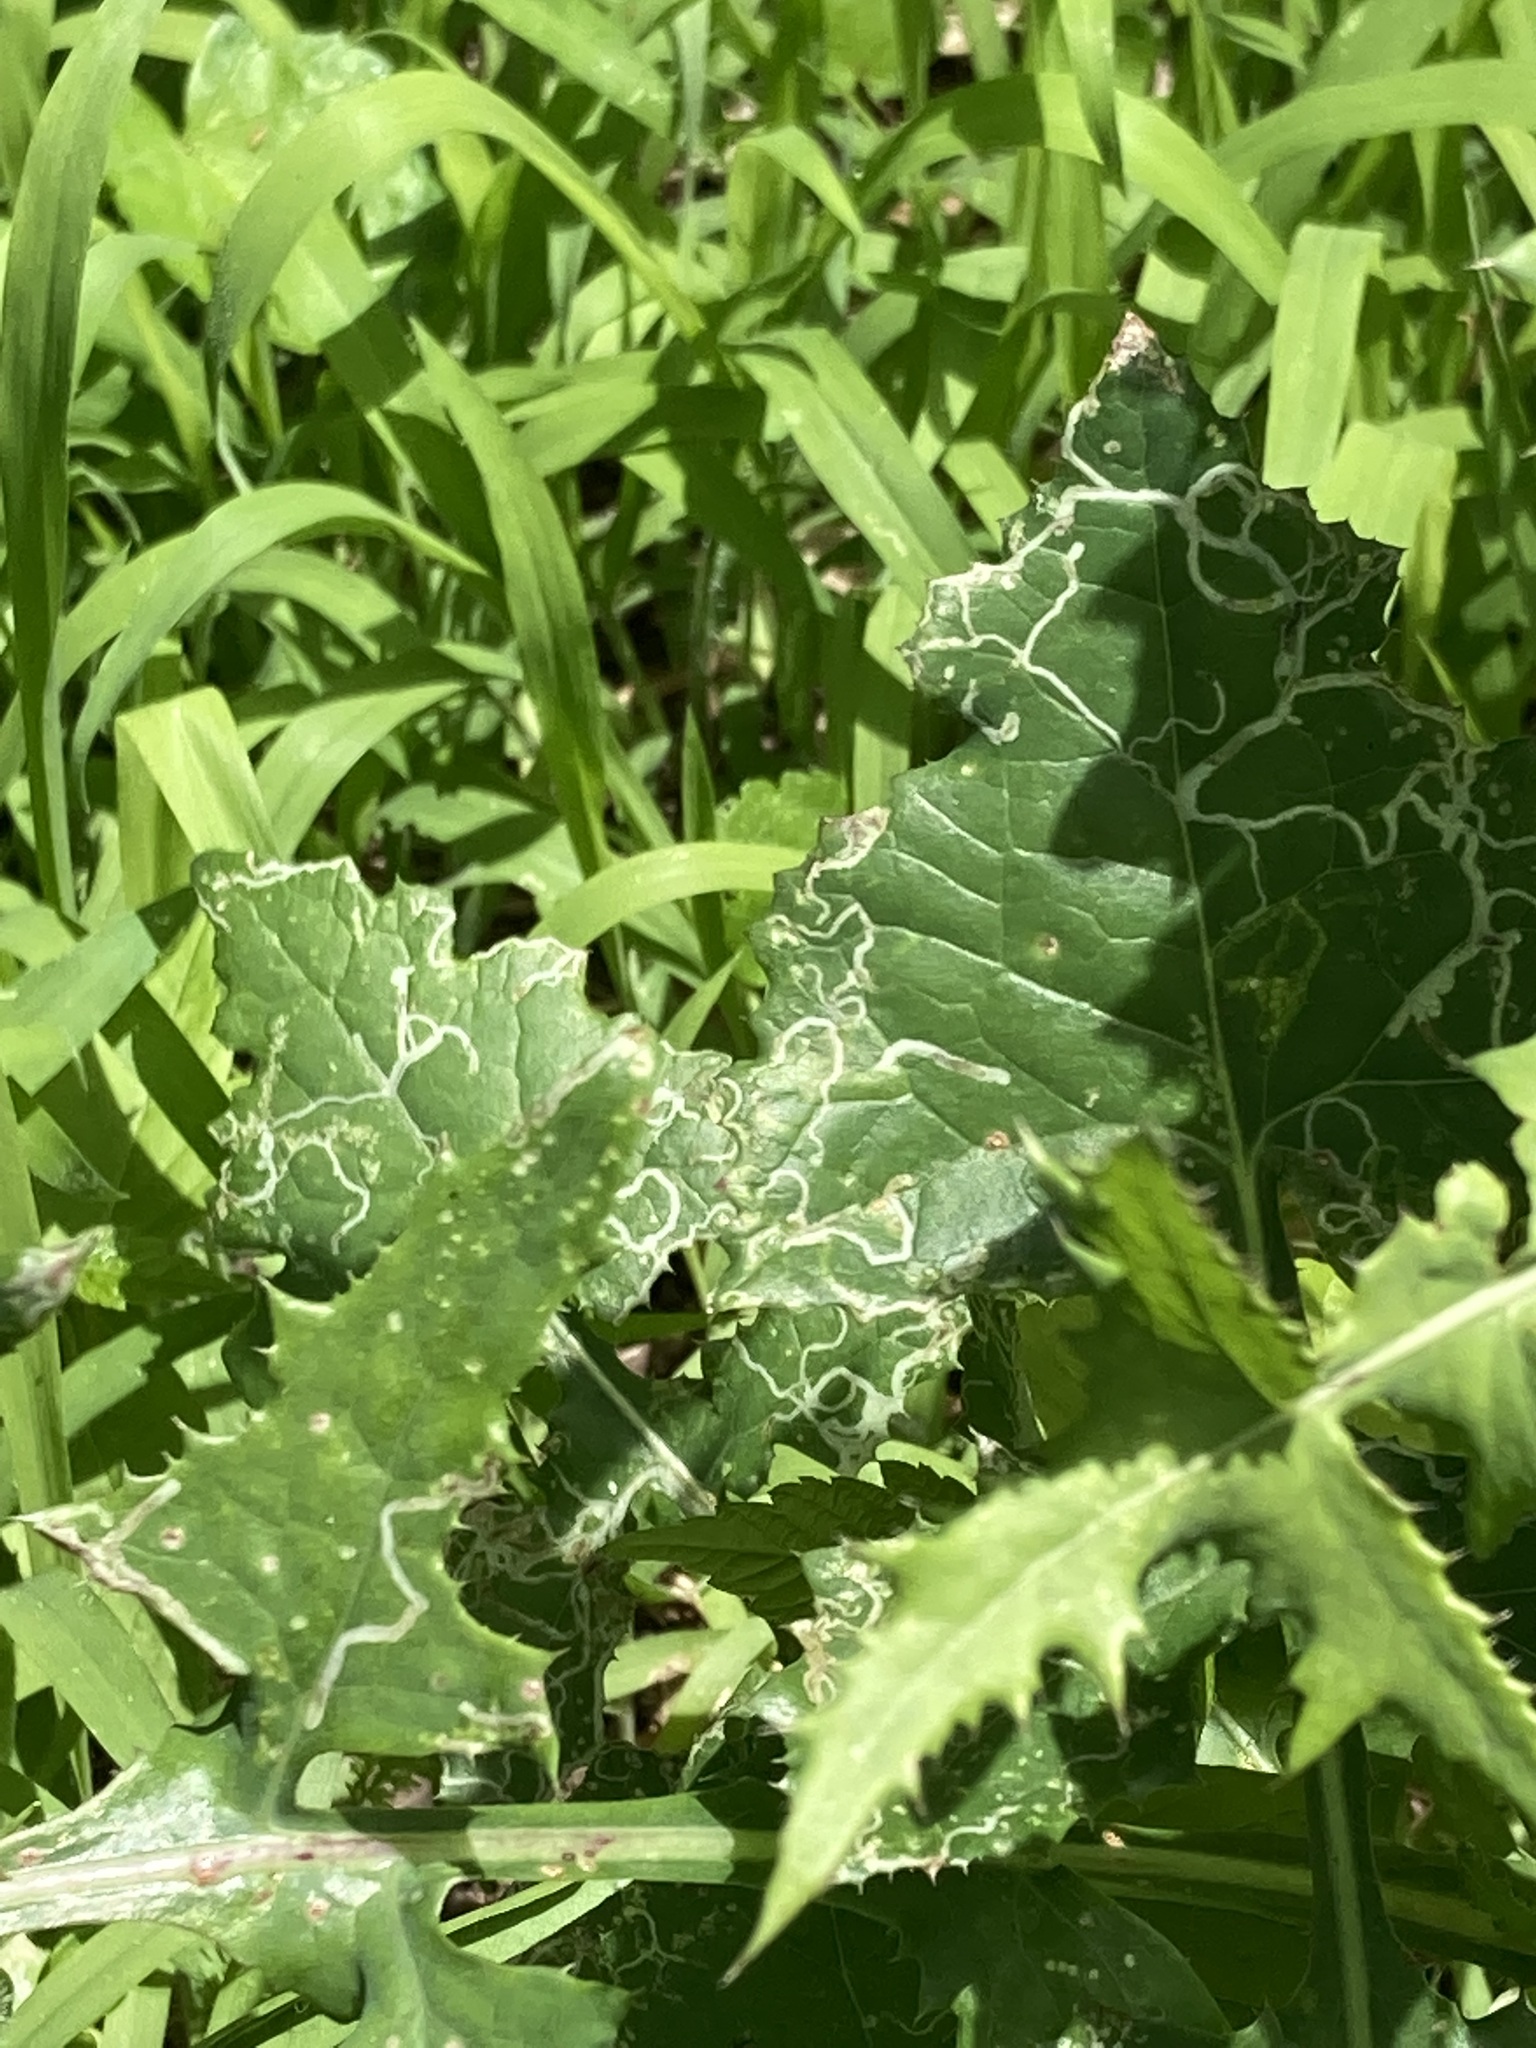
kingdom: Animalia
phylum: Arthropoda
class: Insecta
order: Diptera
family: Agromyzidae
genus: Phytomyza
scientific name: Phytomyza syngenesiae
